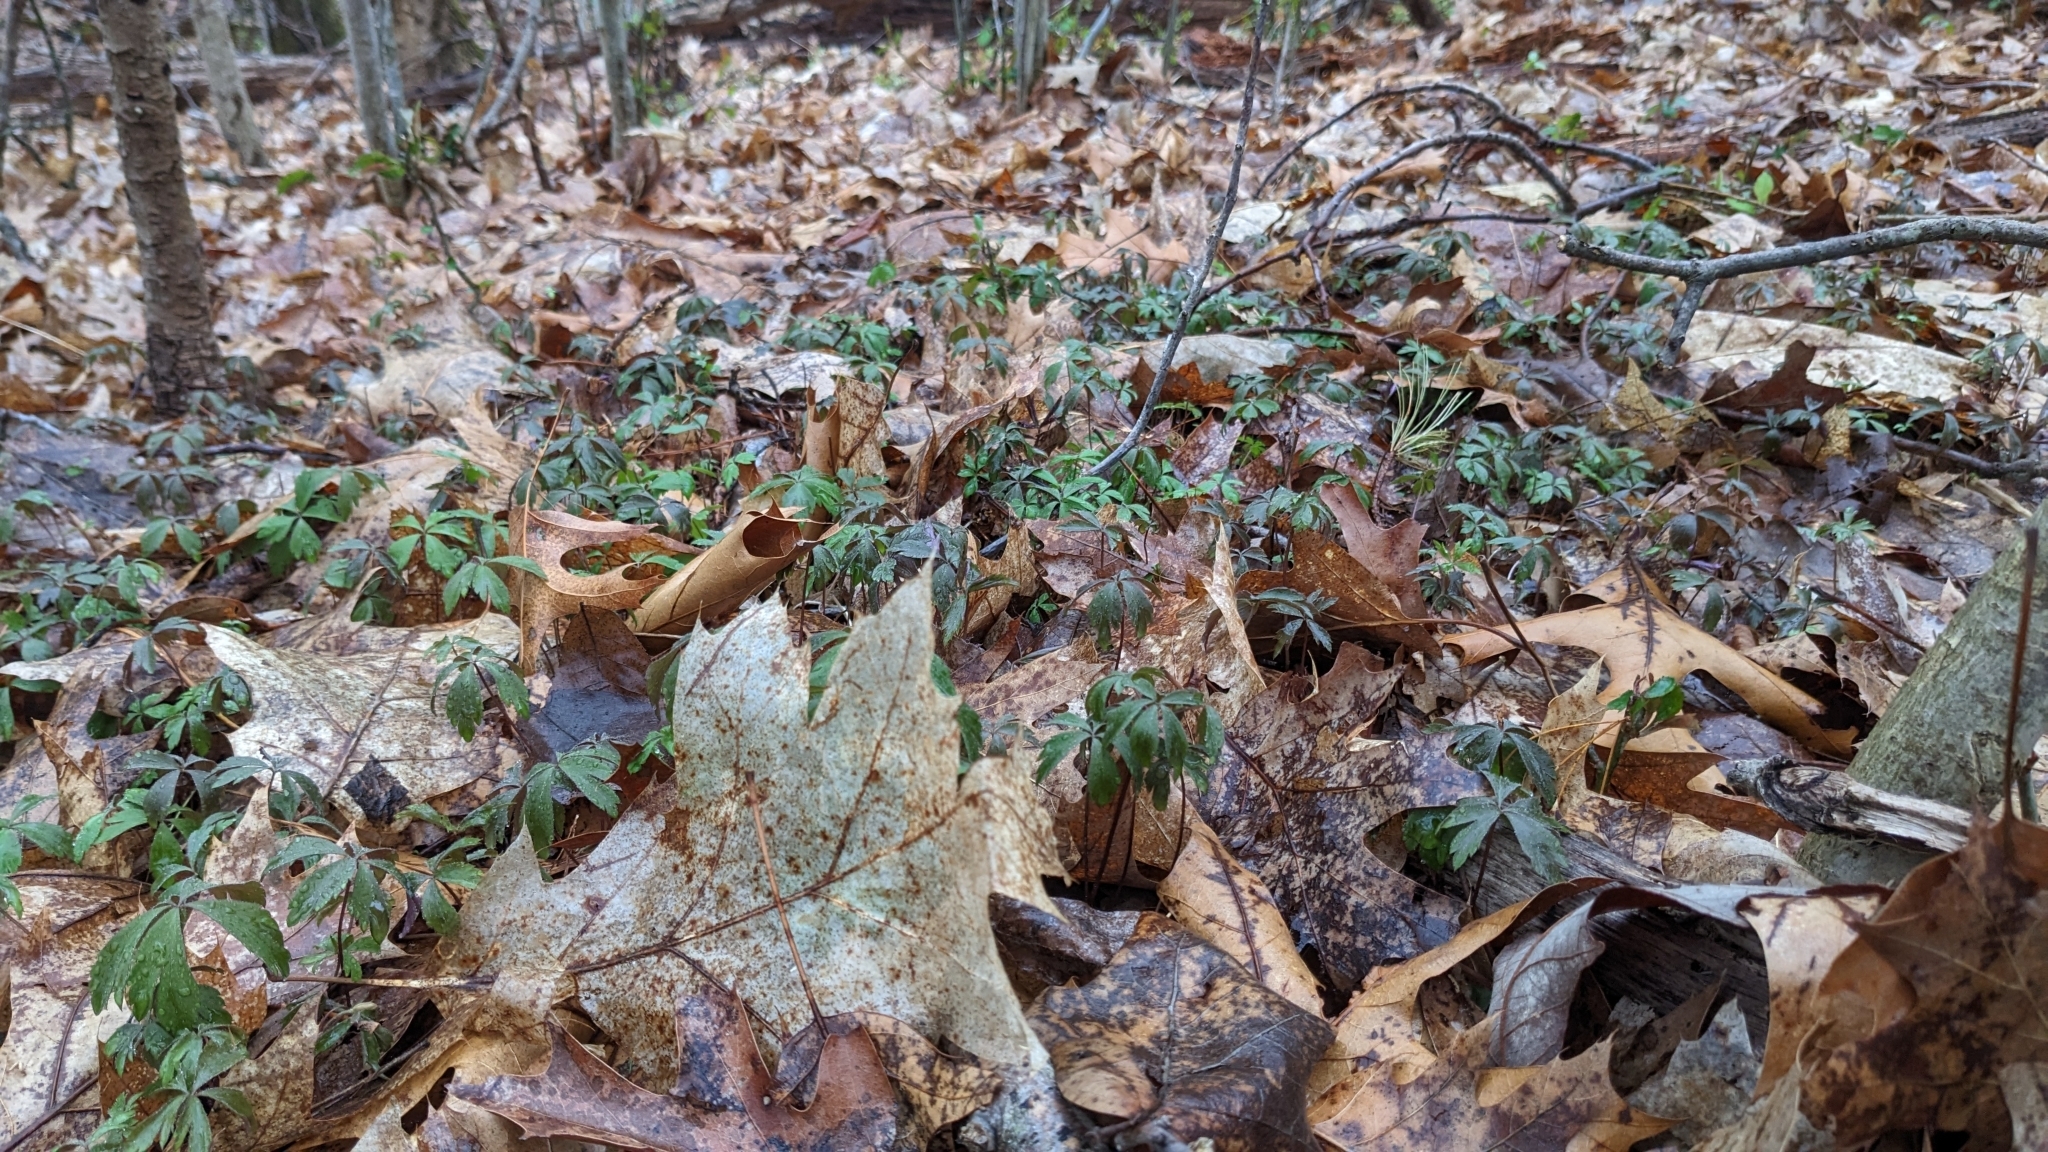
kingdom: Plantae
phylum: Tracheophyta
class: Magnoliopsida
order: Ranunculales
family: Ranunculaceae
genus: Anemone
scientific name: Anemone quinquefolia
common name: Wood anemone
